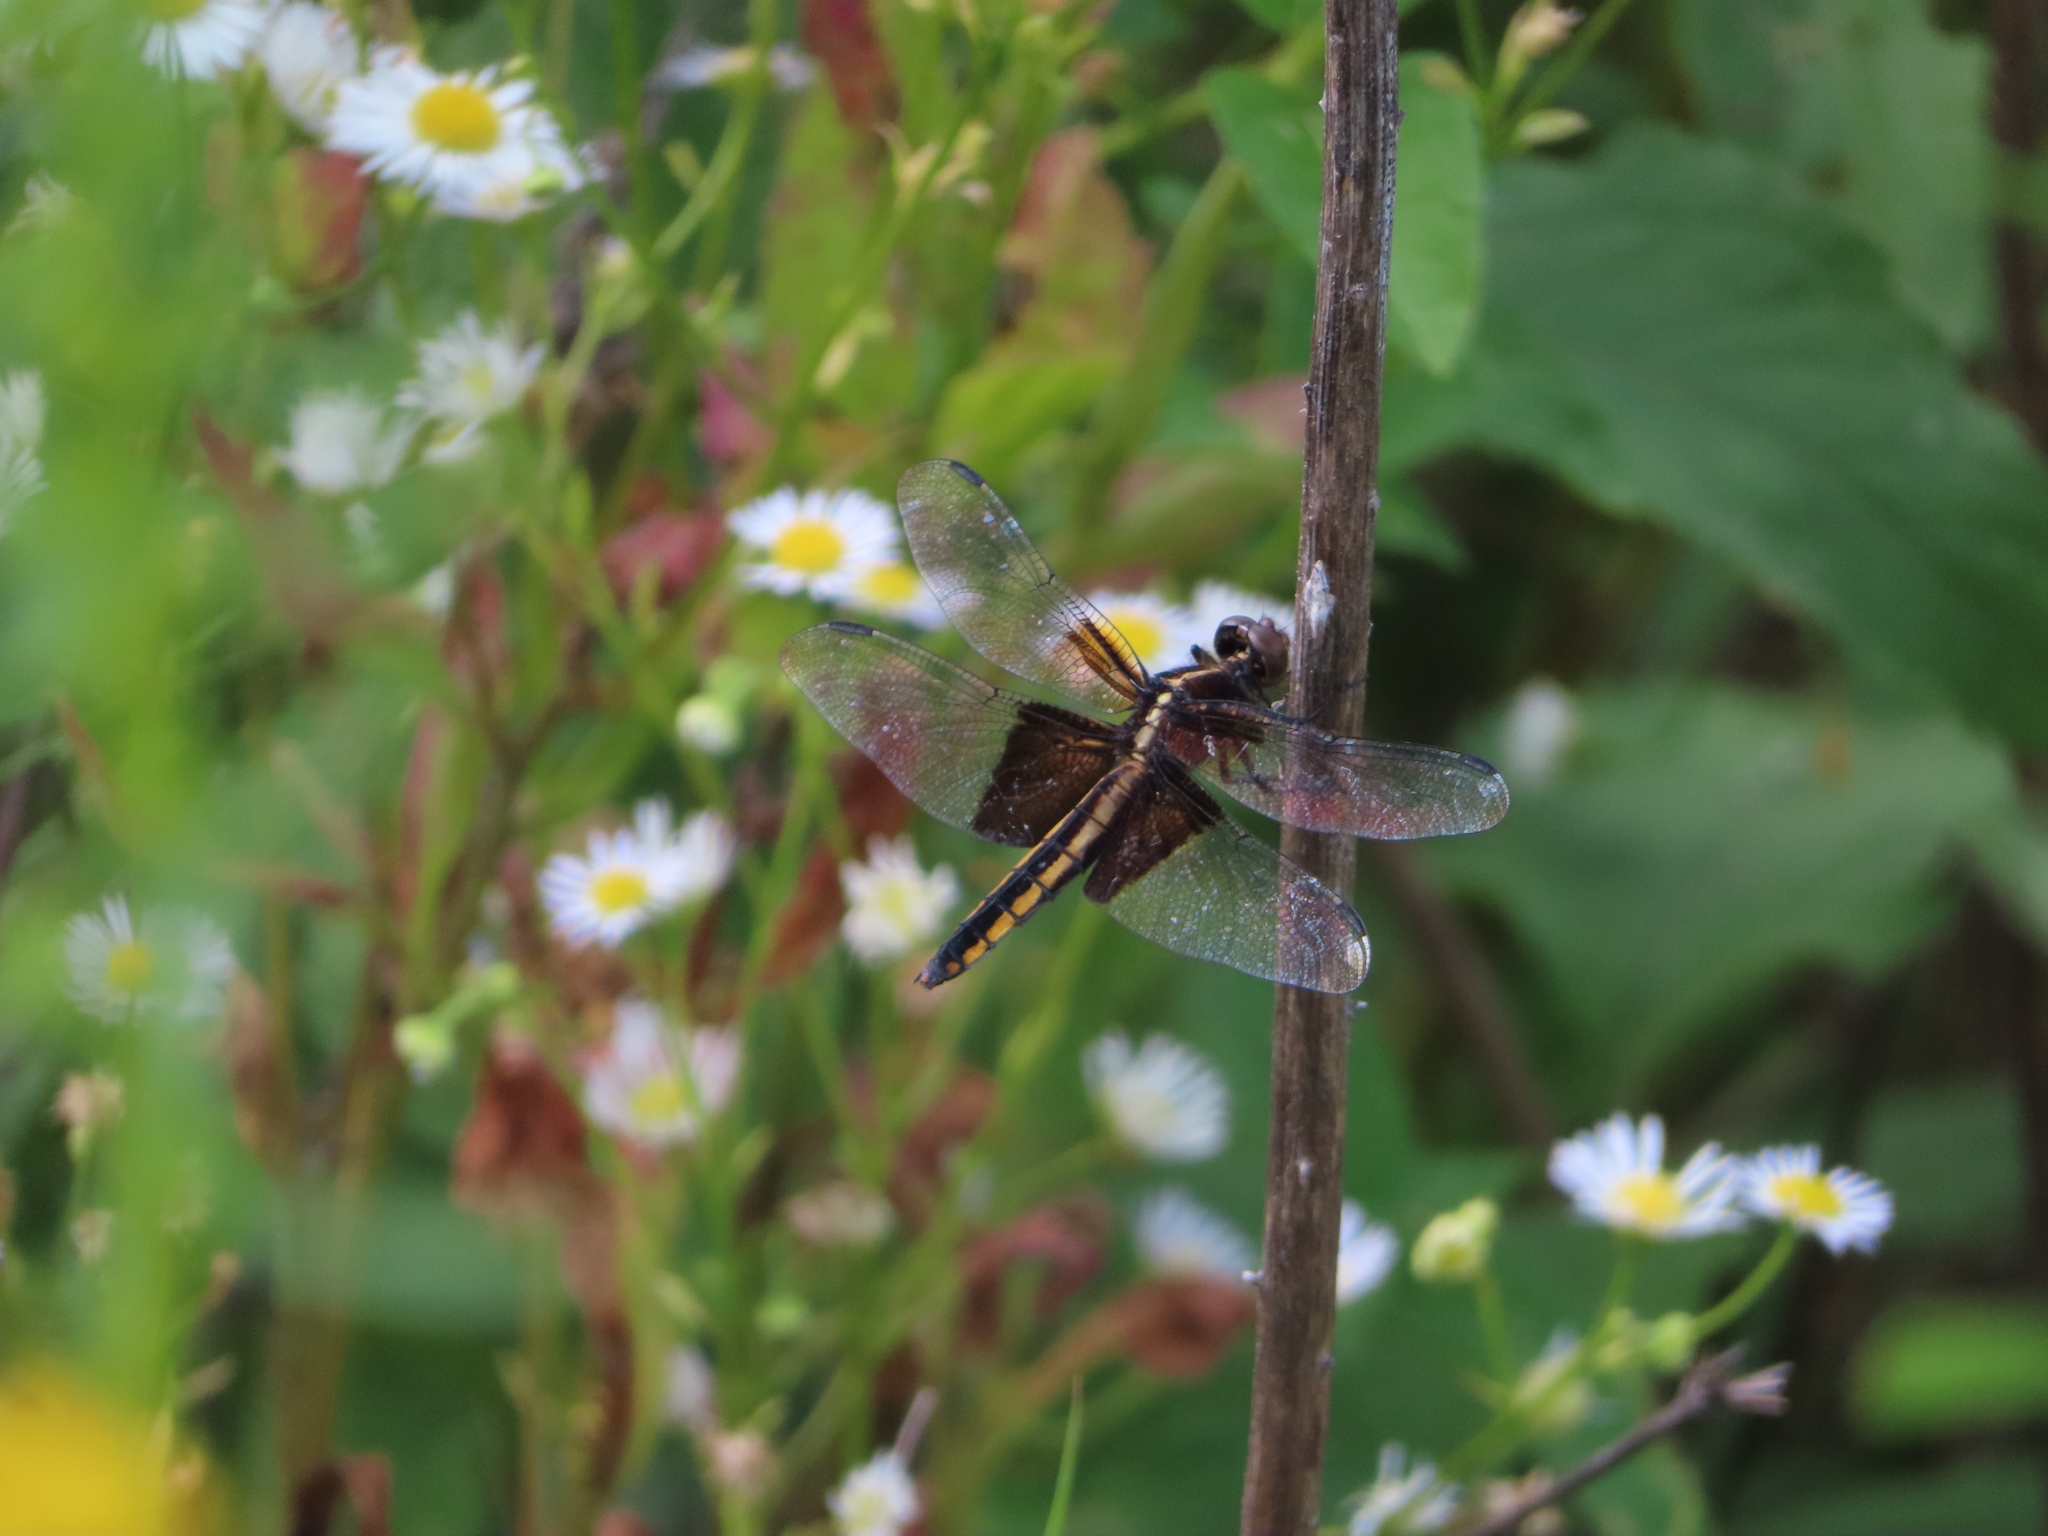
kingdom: Animalia
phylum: Arthropoda
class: Insecta
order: Odonata
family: Libellulidae
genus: Libellula
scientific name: Libellula luctuosa
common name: Widow skimmer
